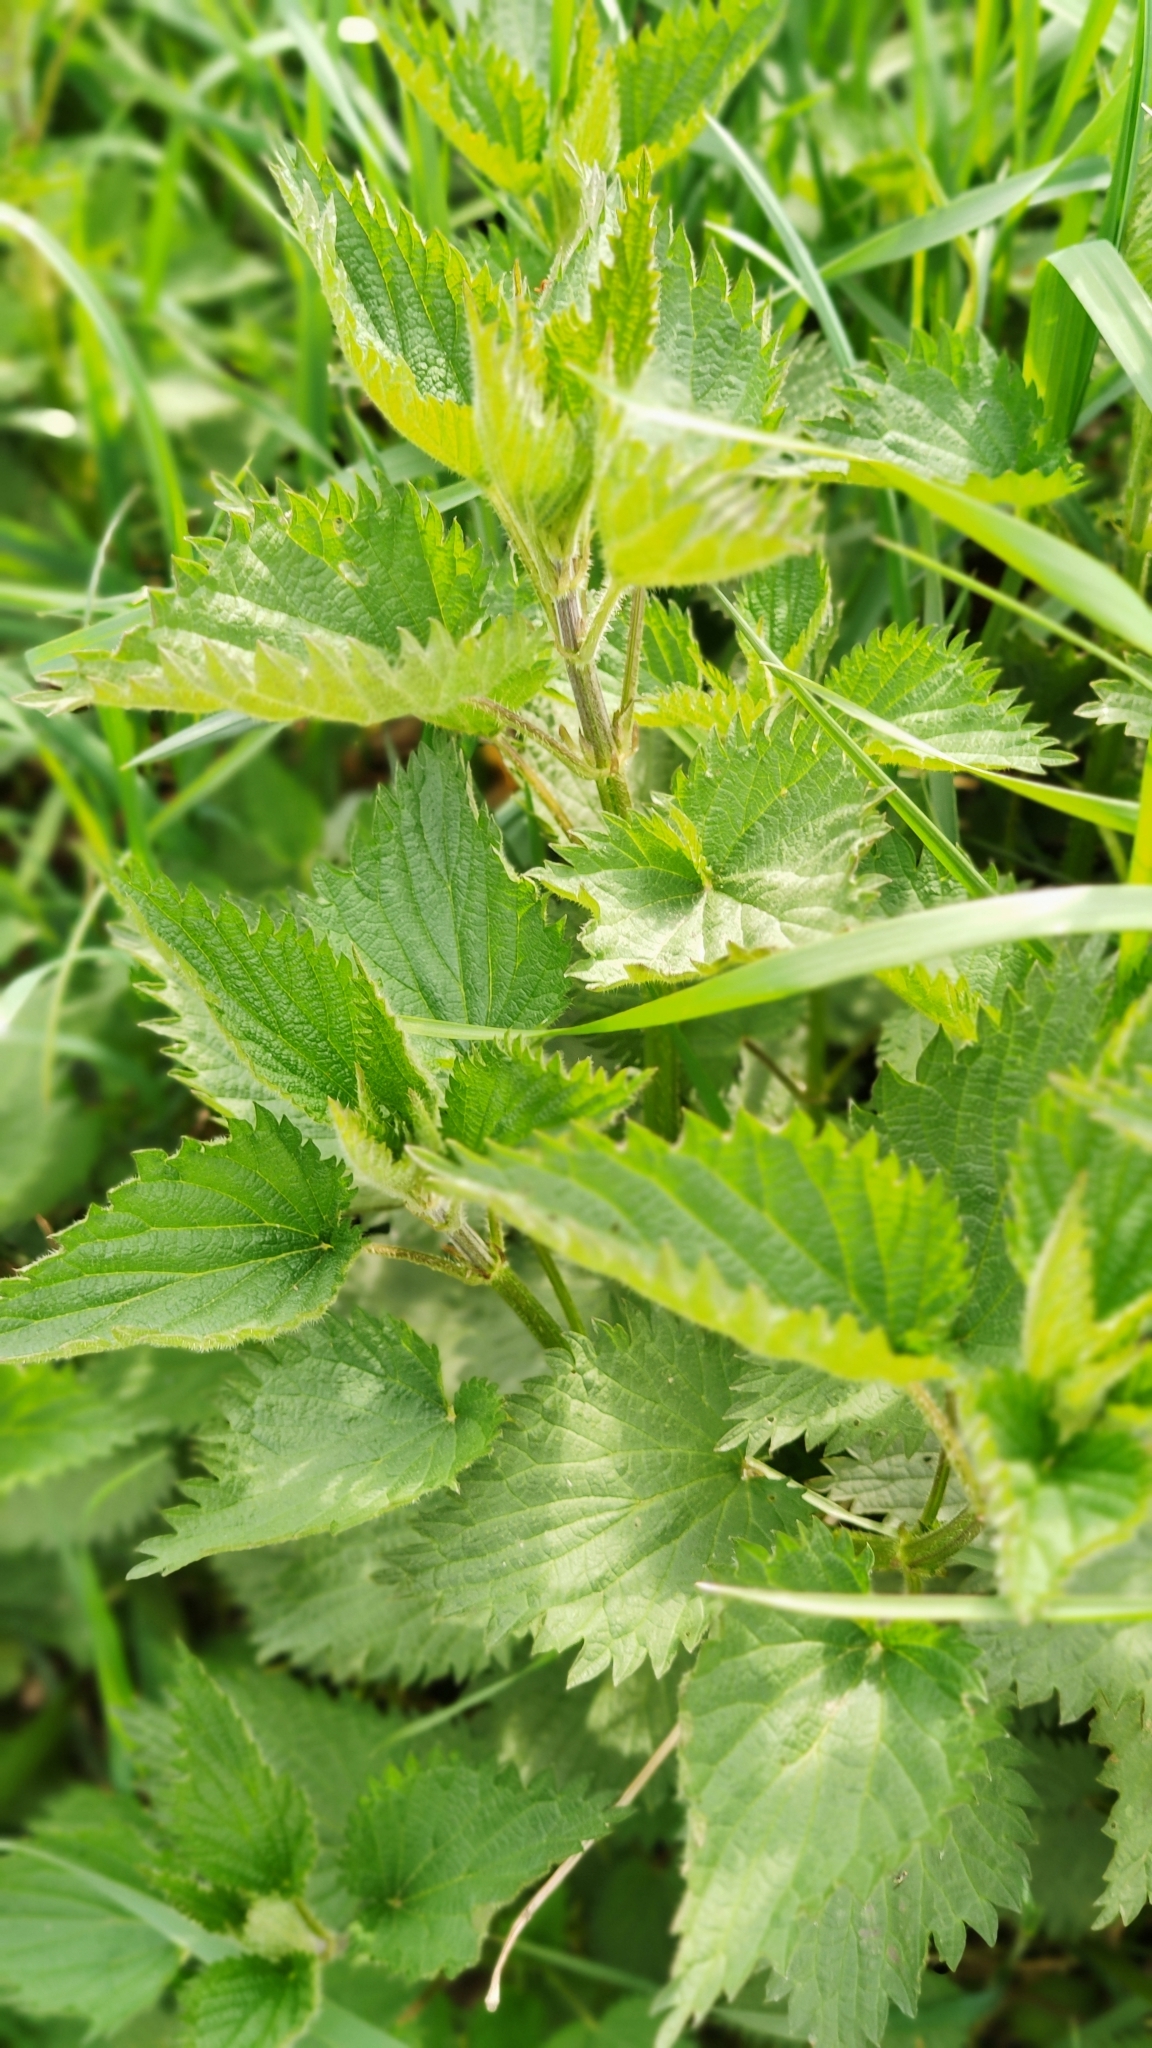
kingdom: Plantae
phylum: Tracheophyta
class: Magnoliopsida
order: Rosales
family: Urticaceae
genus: Urtica
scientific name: Urtica dioica
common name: Common nettle
